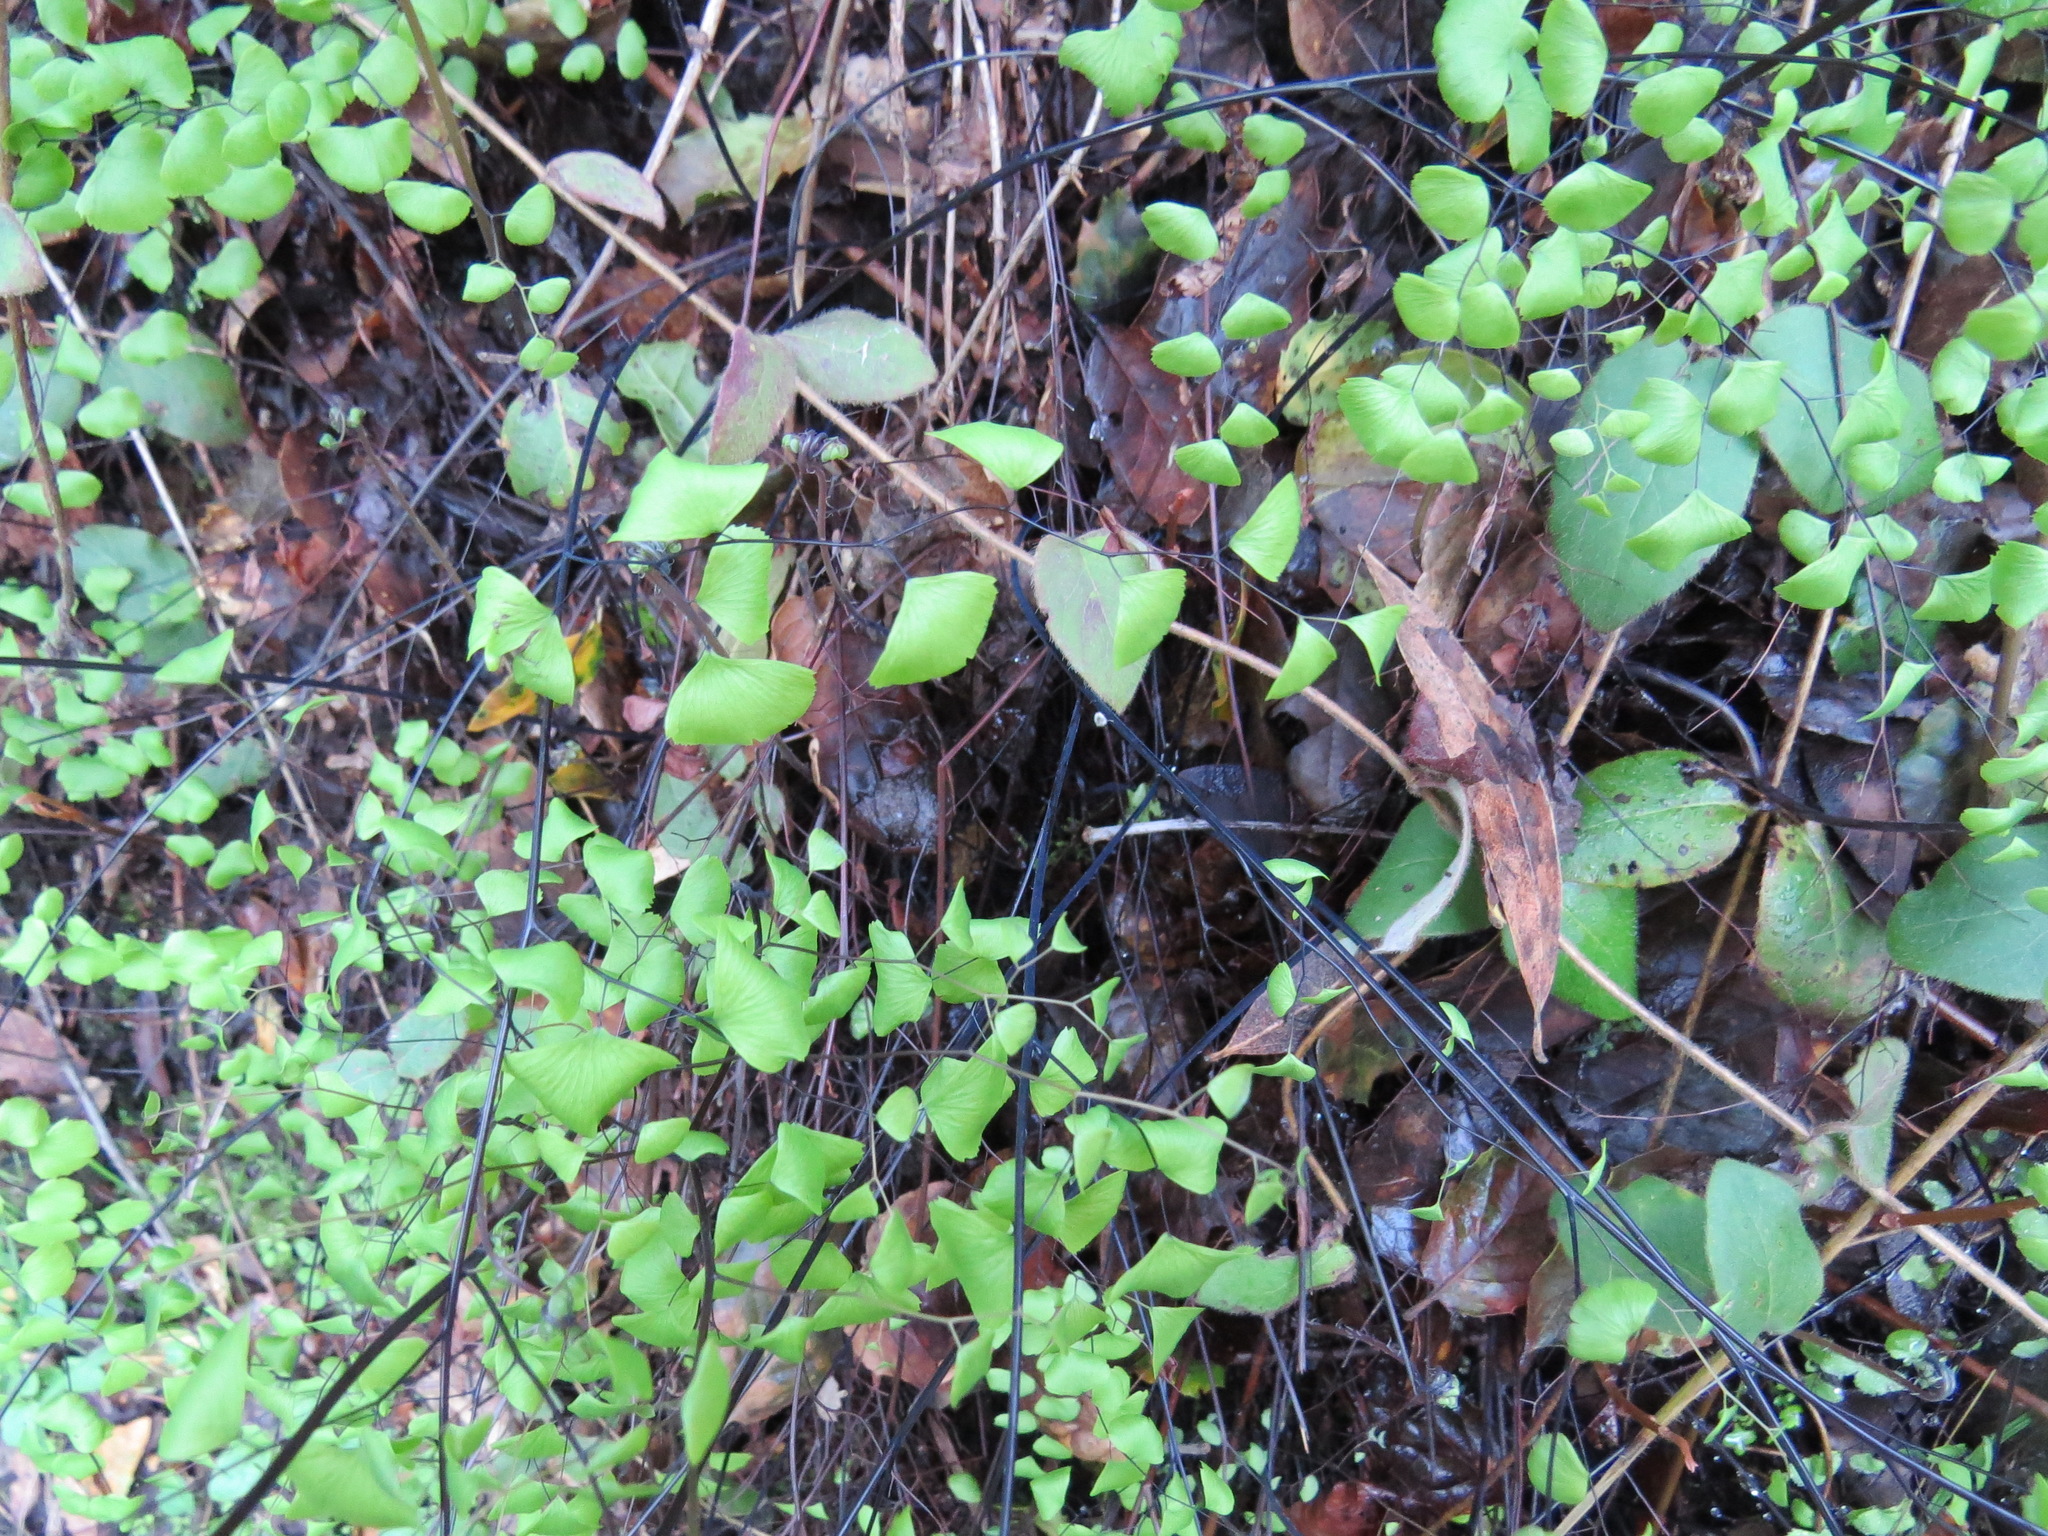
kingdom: Plantae
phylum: Tracheophyta
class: Polypodiopsida
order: Polypodiales
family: Pteridaceae
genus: Adiantum
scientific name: Adiantum jordanii
